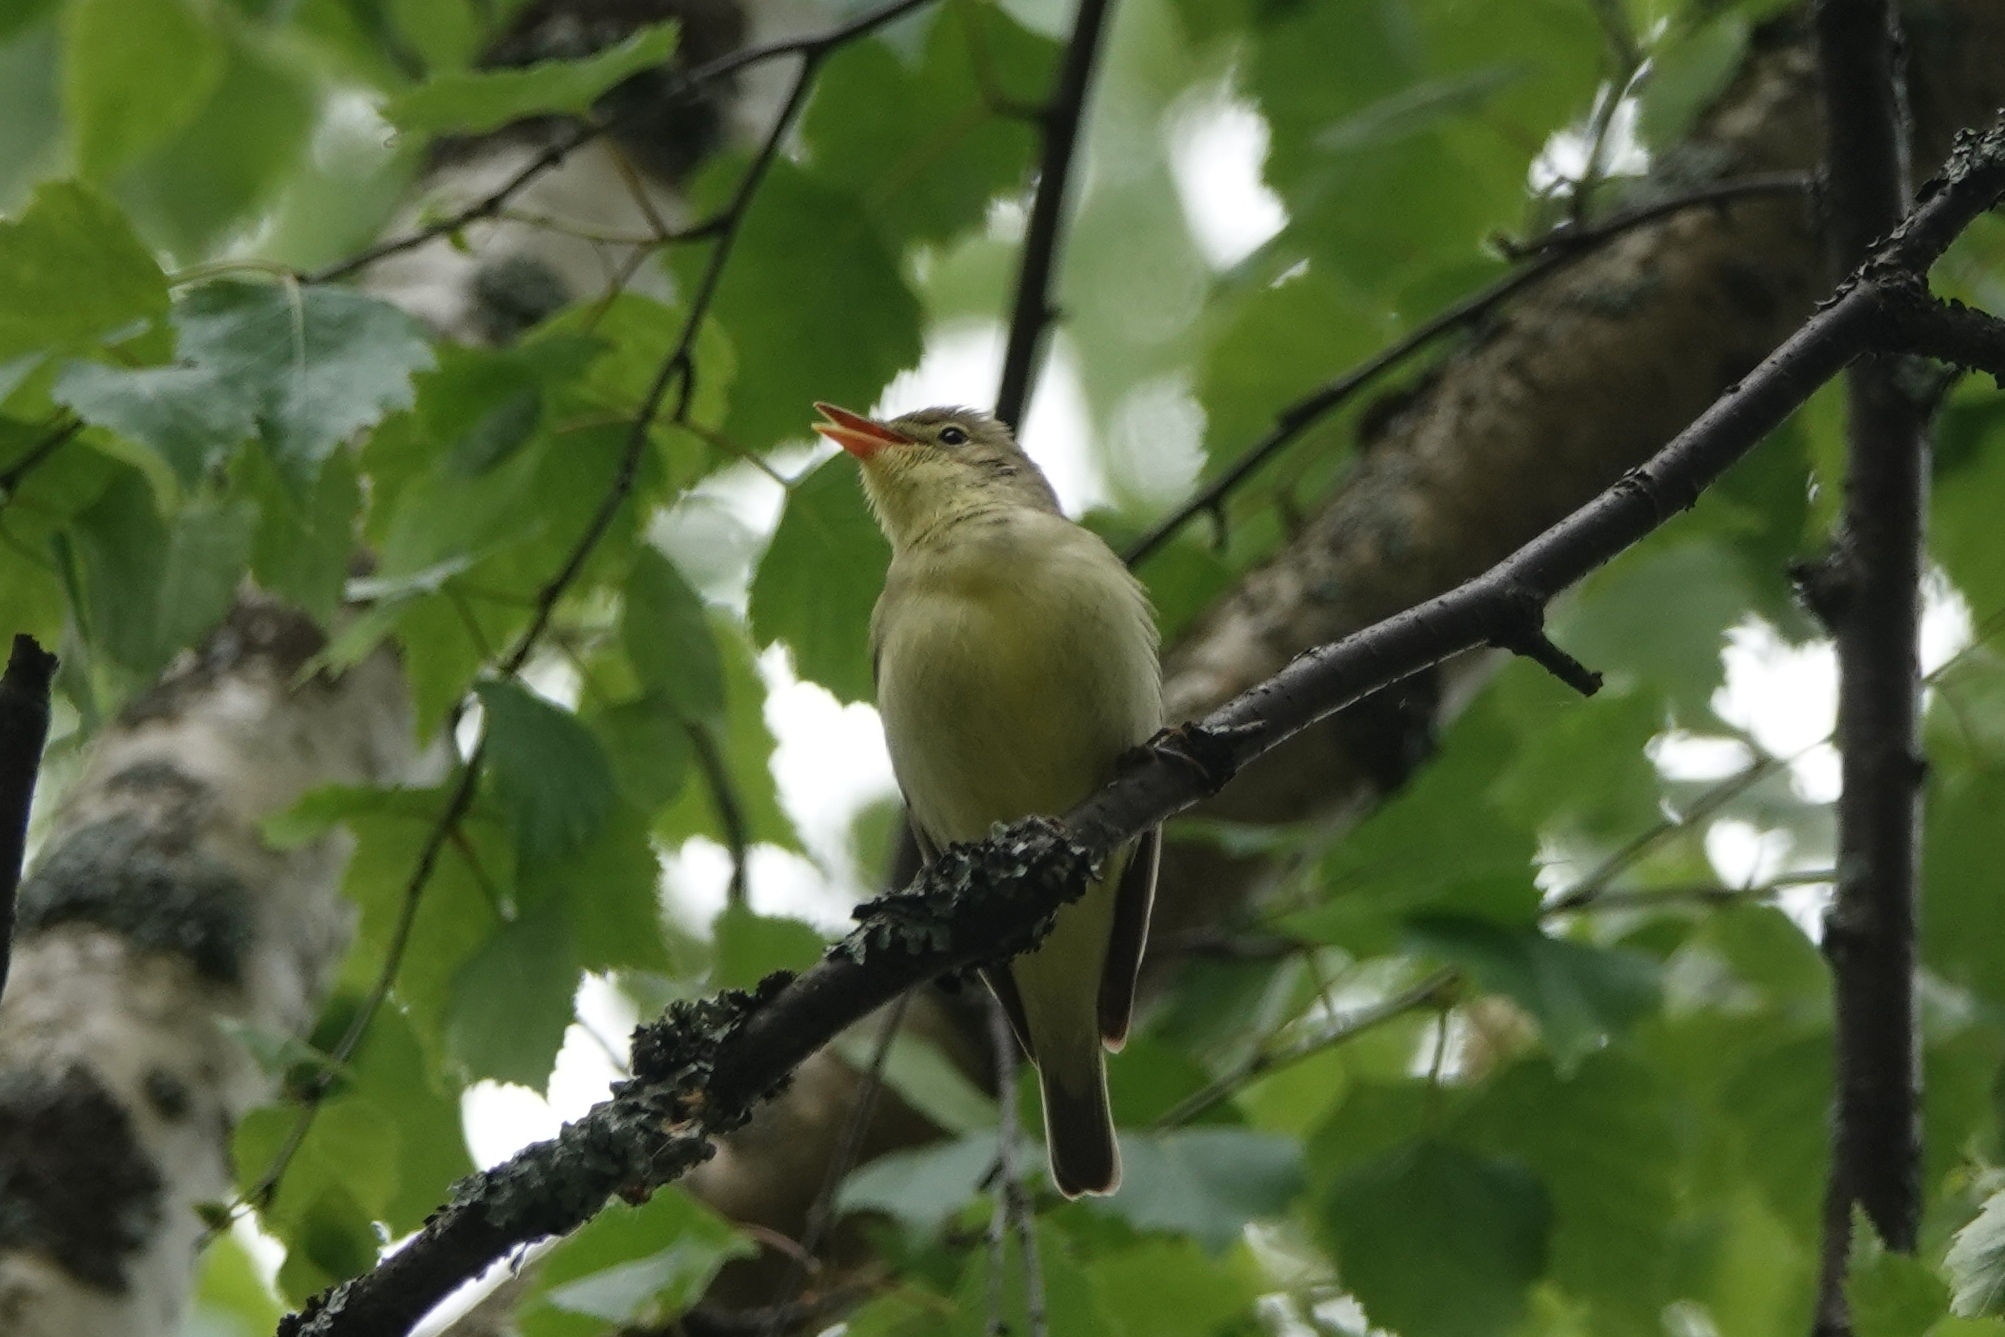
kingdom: Animalia
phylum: Chordata
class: Aves
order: Passeriformes
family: Acrocephalidae
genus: Hippolais
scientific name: Hippolais icterina
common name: Icterine warbler
